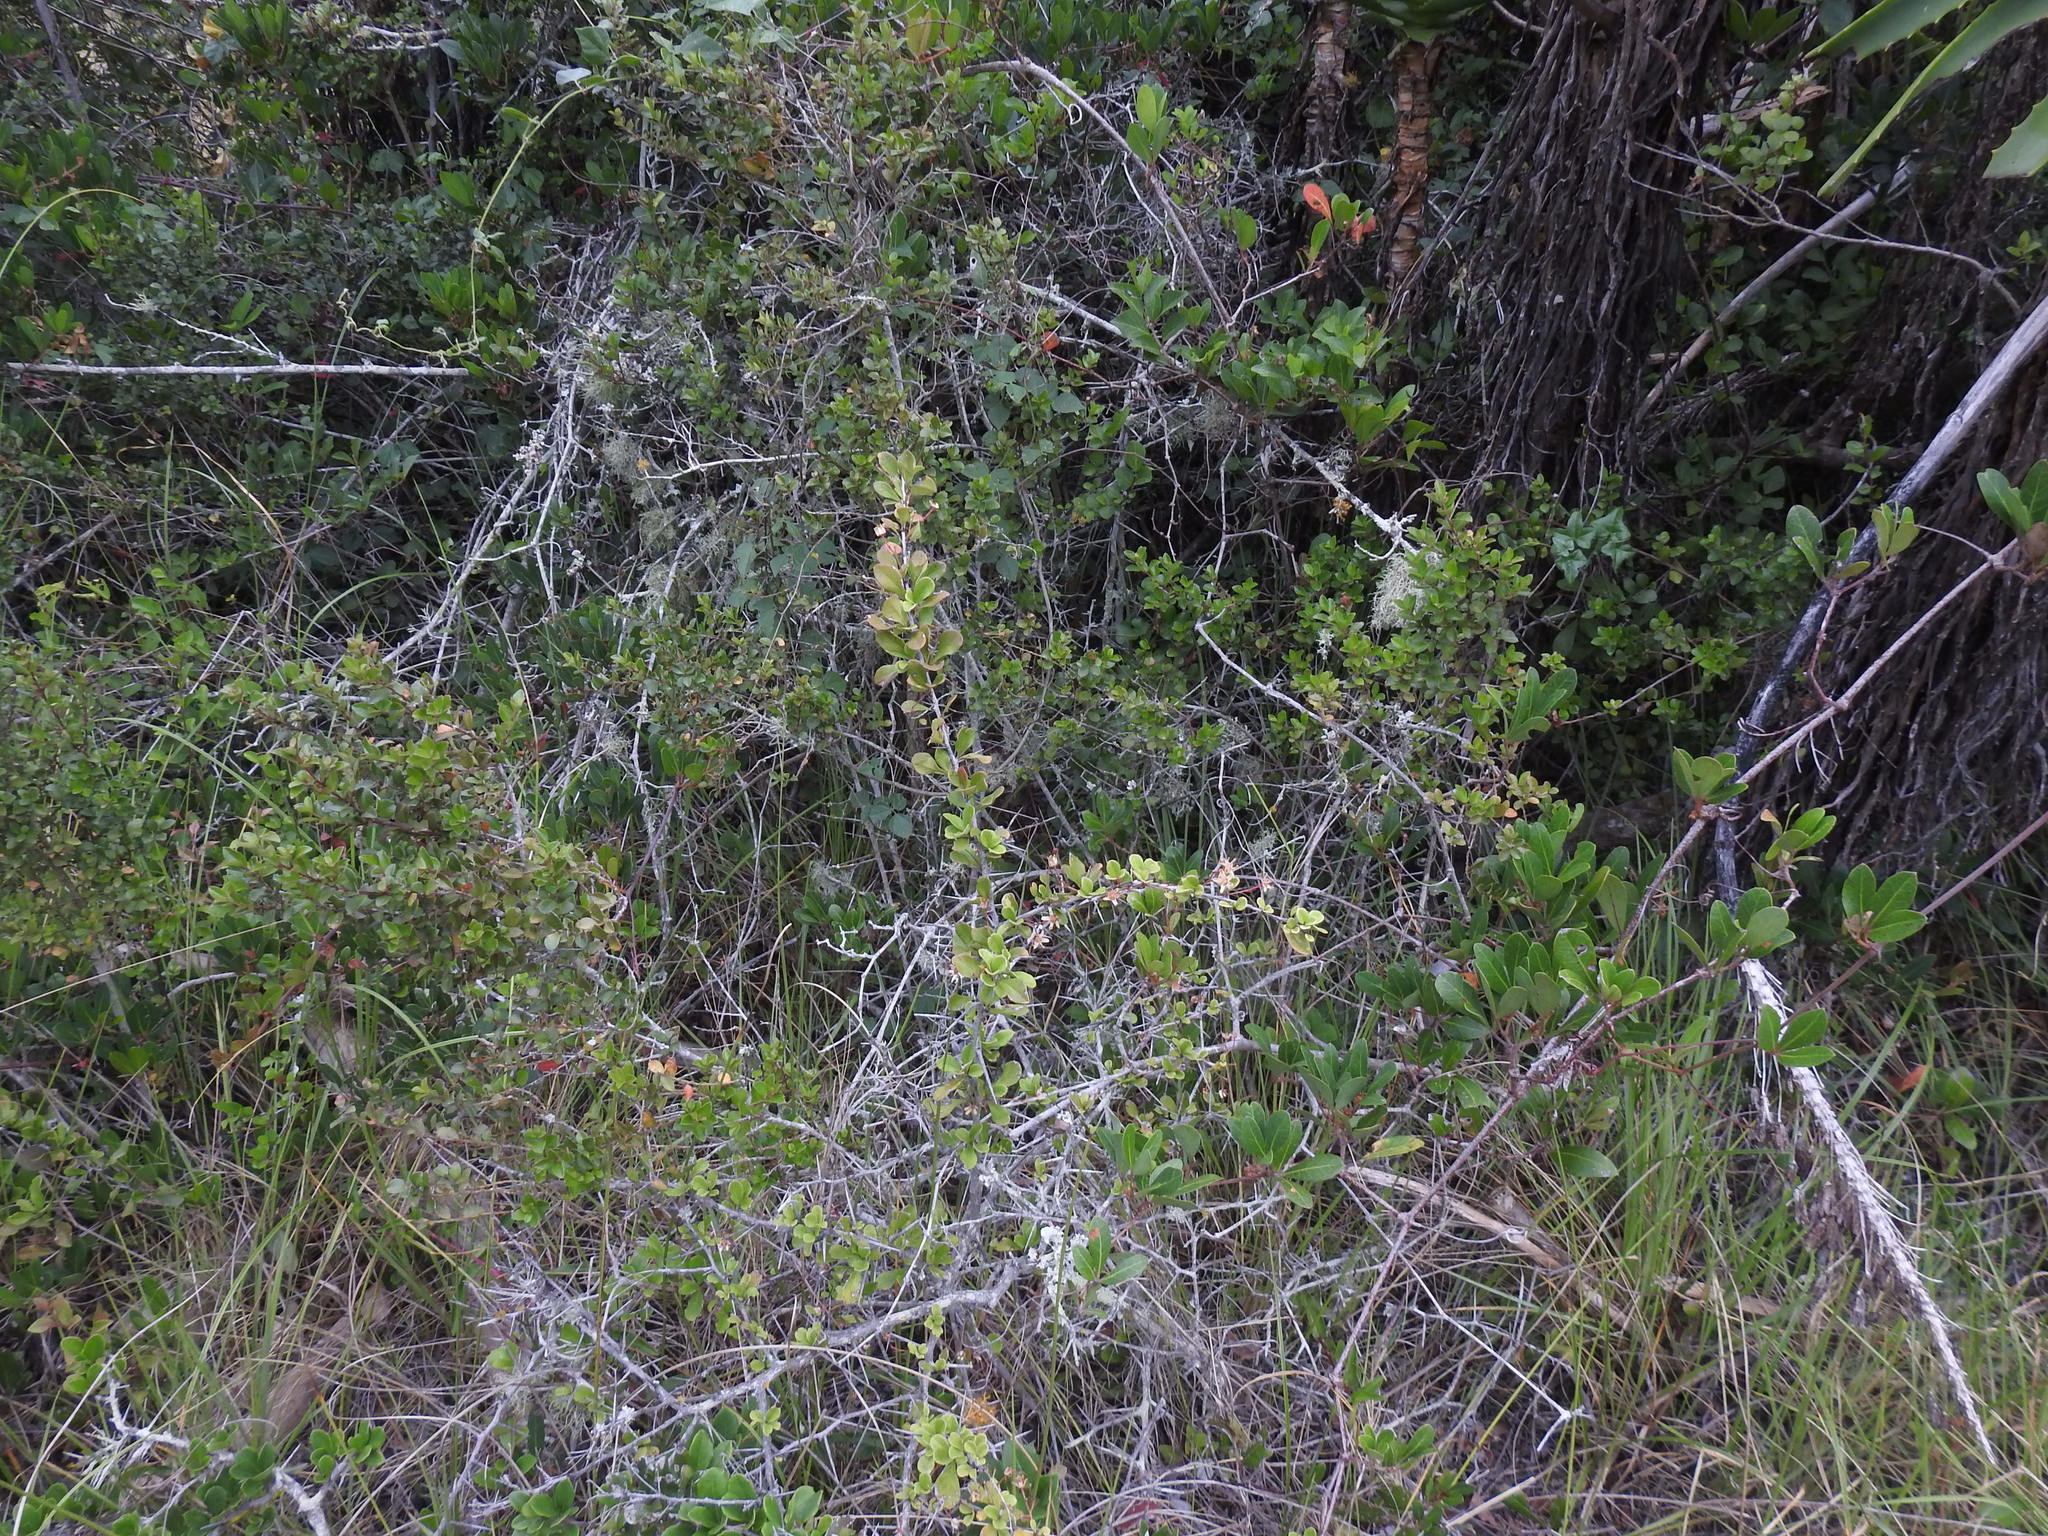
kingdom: Plantae
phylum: Tracheophyta
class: Magnoliopsida
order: Celastrales
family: Celastraceae
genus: Gymnosporia
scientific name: Gymnosporia nemorosa
